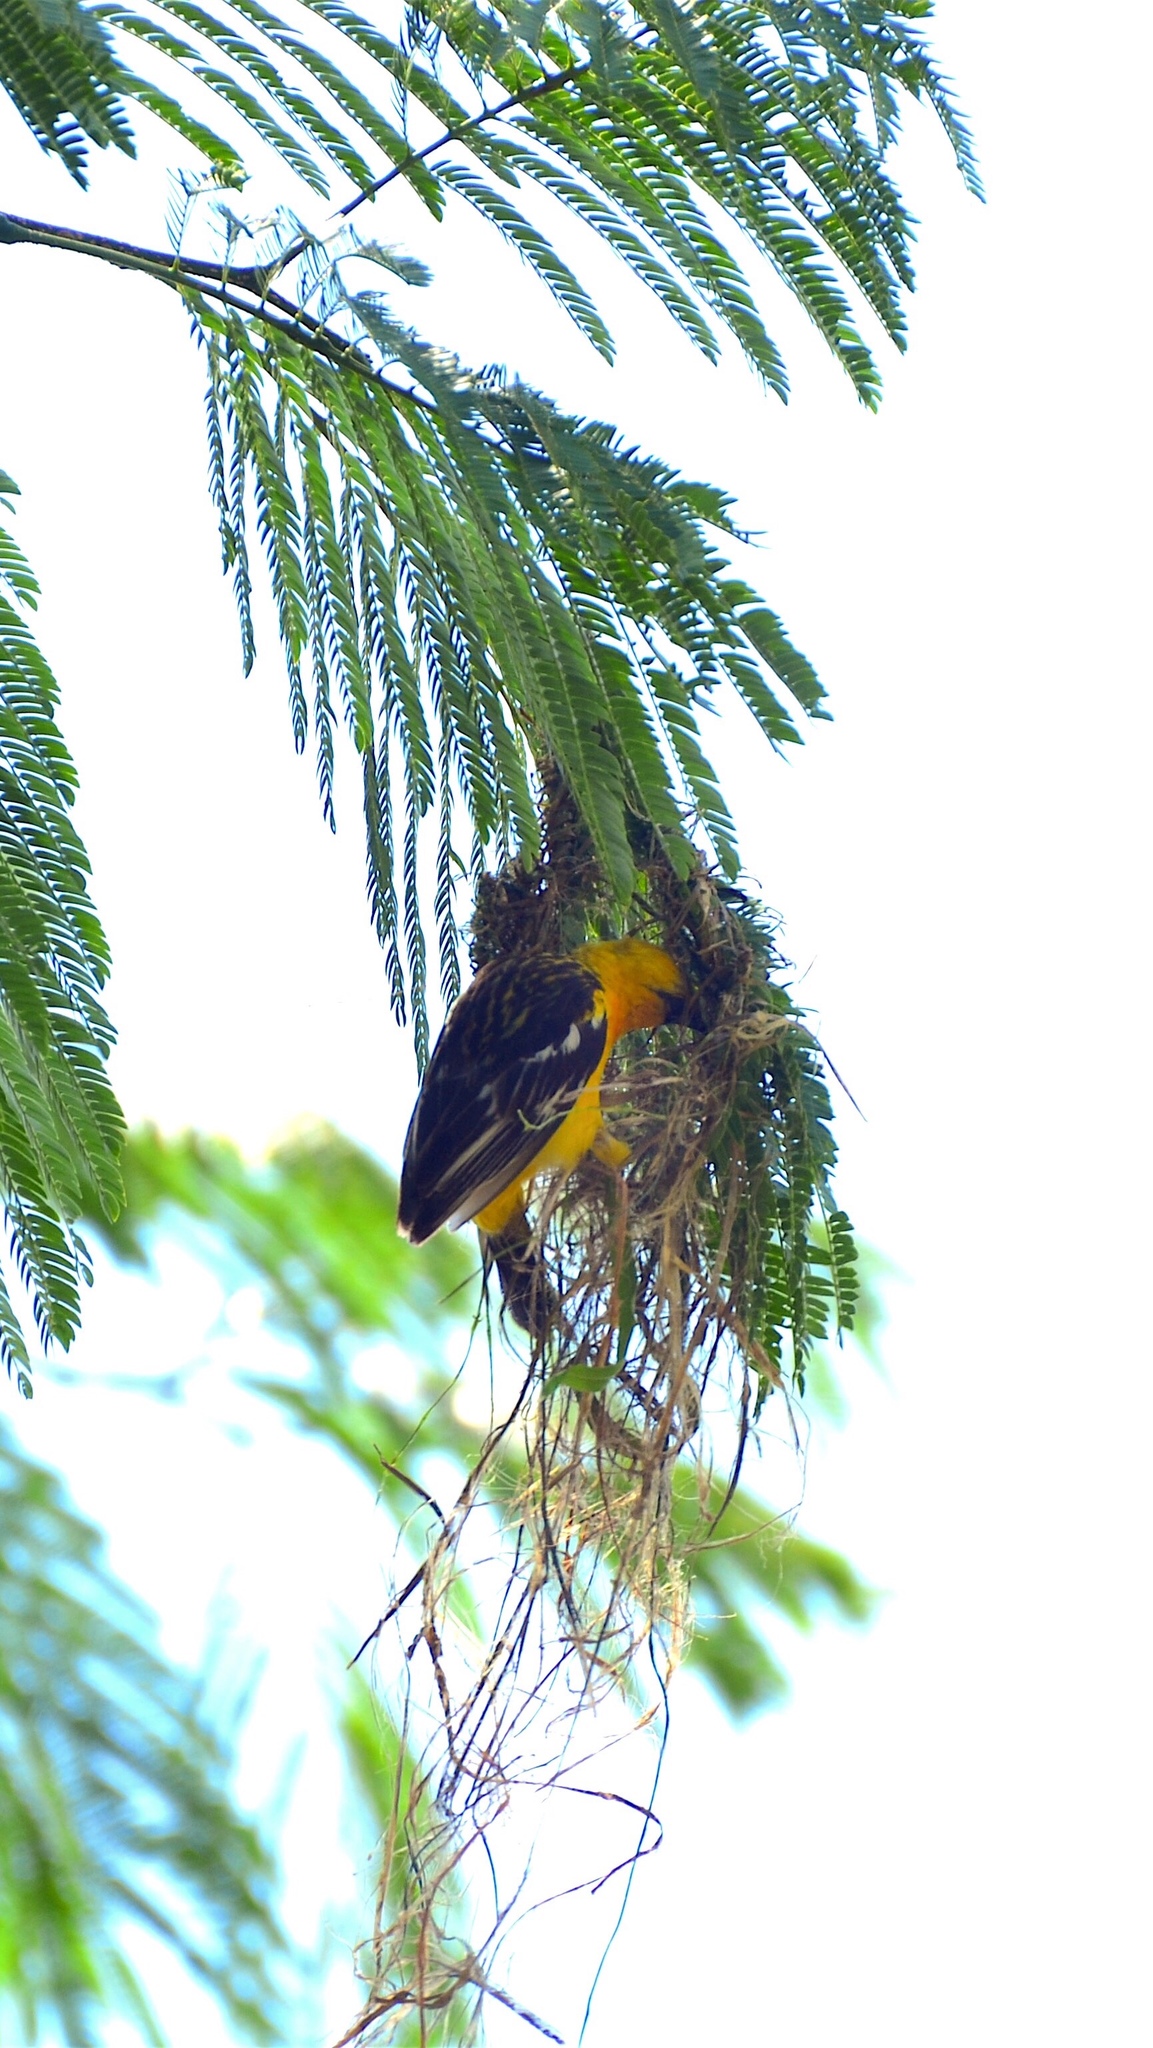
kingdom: Animalia
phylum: Chordata
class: Aves
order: Passeriformes
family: Icteridae
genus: Icterus
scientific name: Icterus pustulatus
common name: Streak-backed oriole
